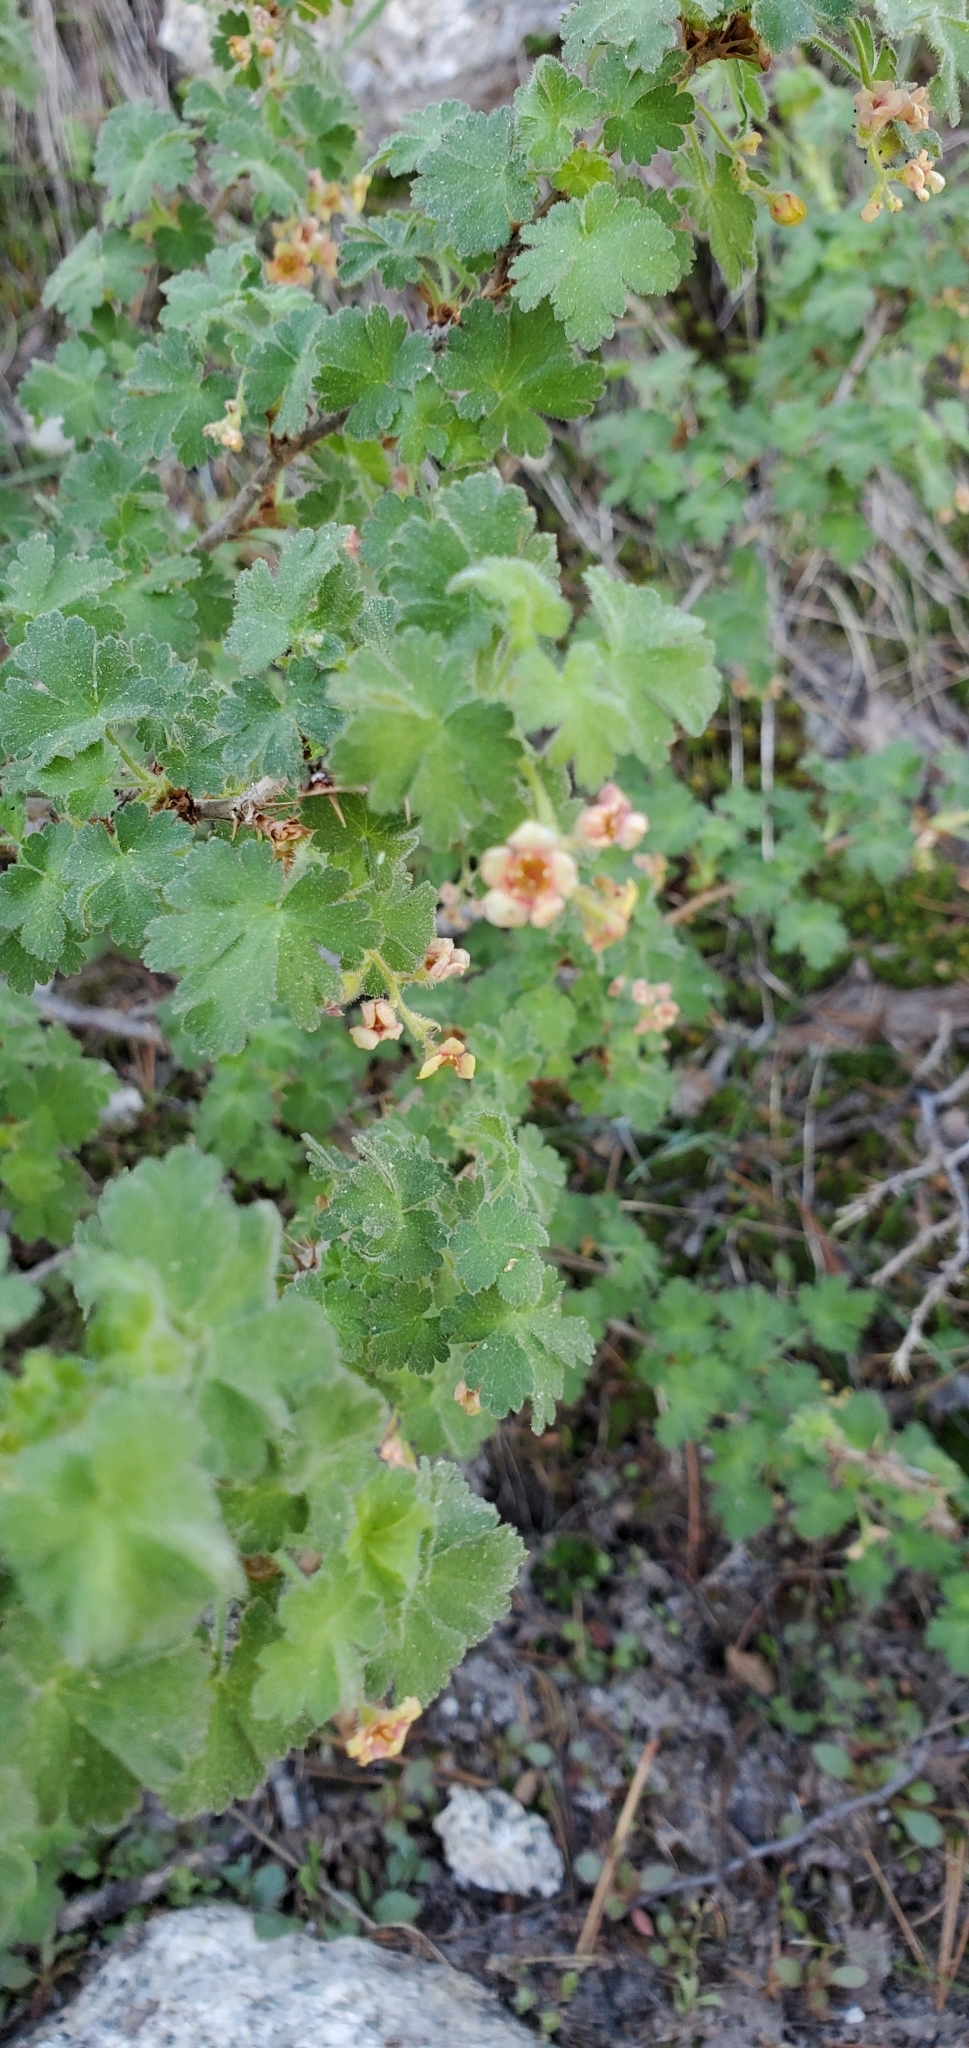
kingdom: Plantae
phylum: Tracheophyta
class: Magnoliopsida
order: Saxifragales
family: Grossulariaceae
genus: Ribes
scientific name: Ribes montigenum
